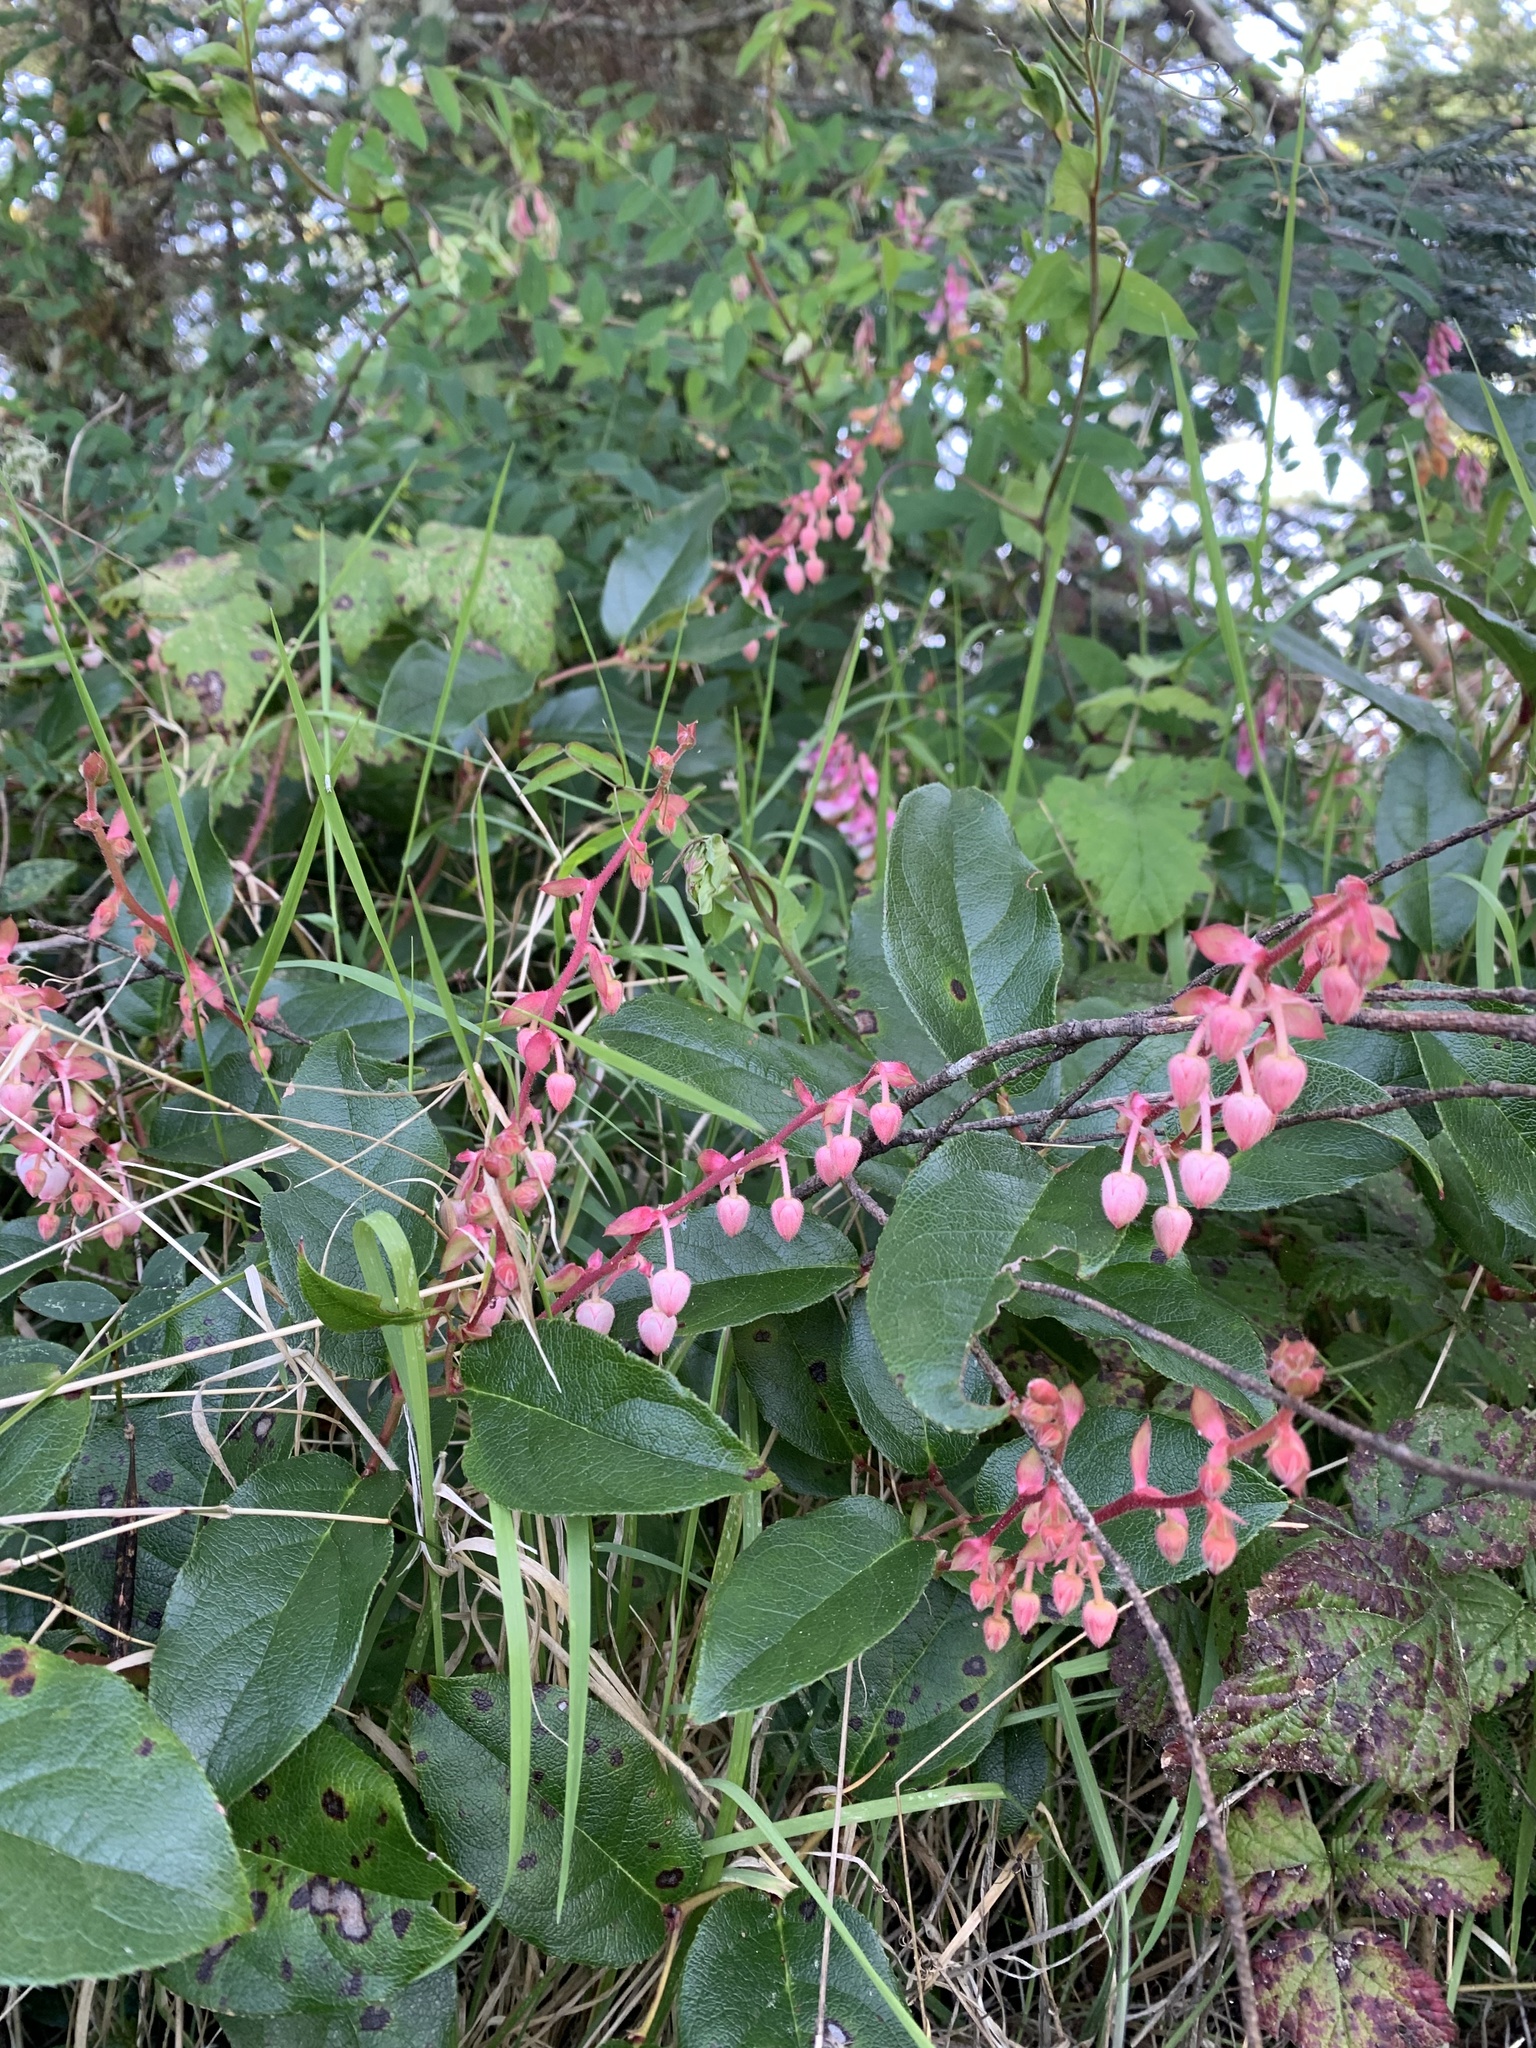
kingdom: Plantae
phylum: Tracheophyta
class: Magnoliopsida
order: Ericales
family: Ericaceae
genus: Gaultheria
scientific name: Gaultheria shallon
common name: Shallon
